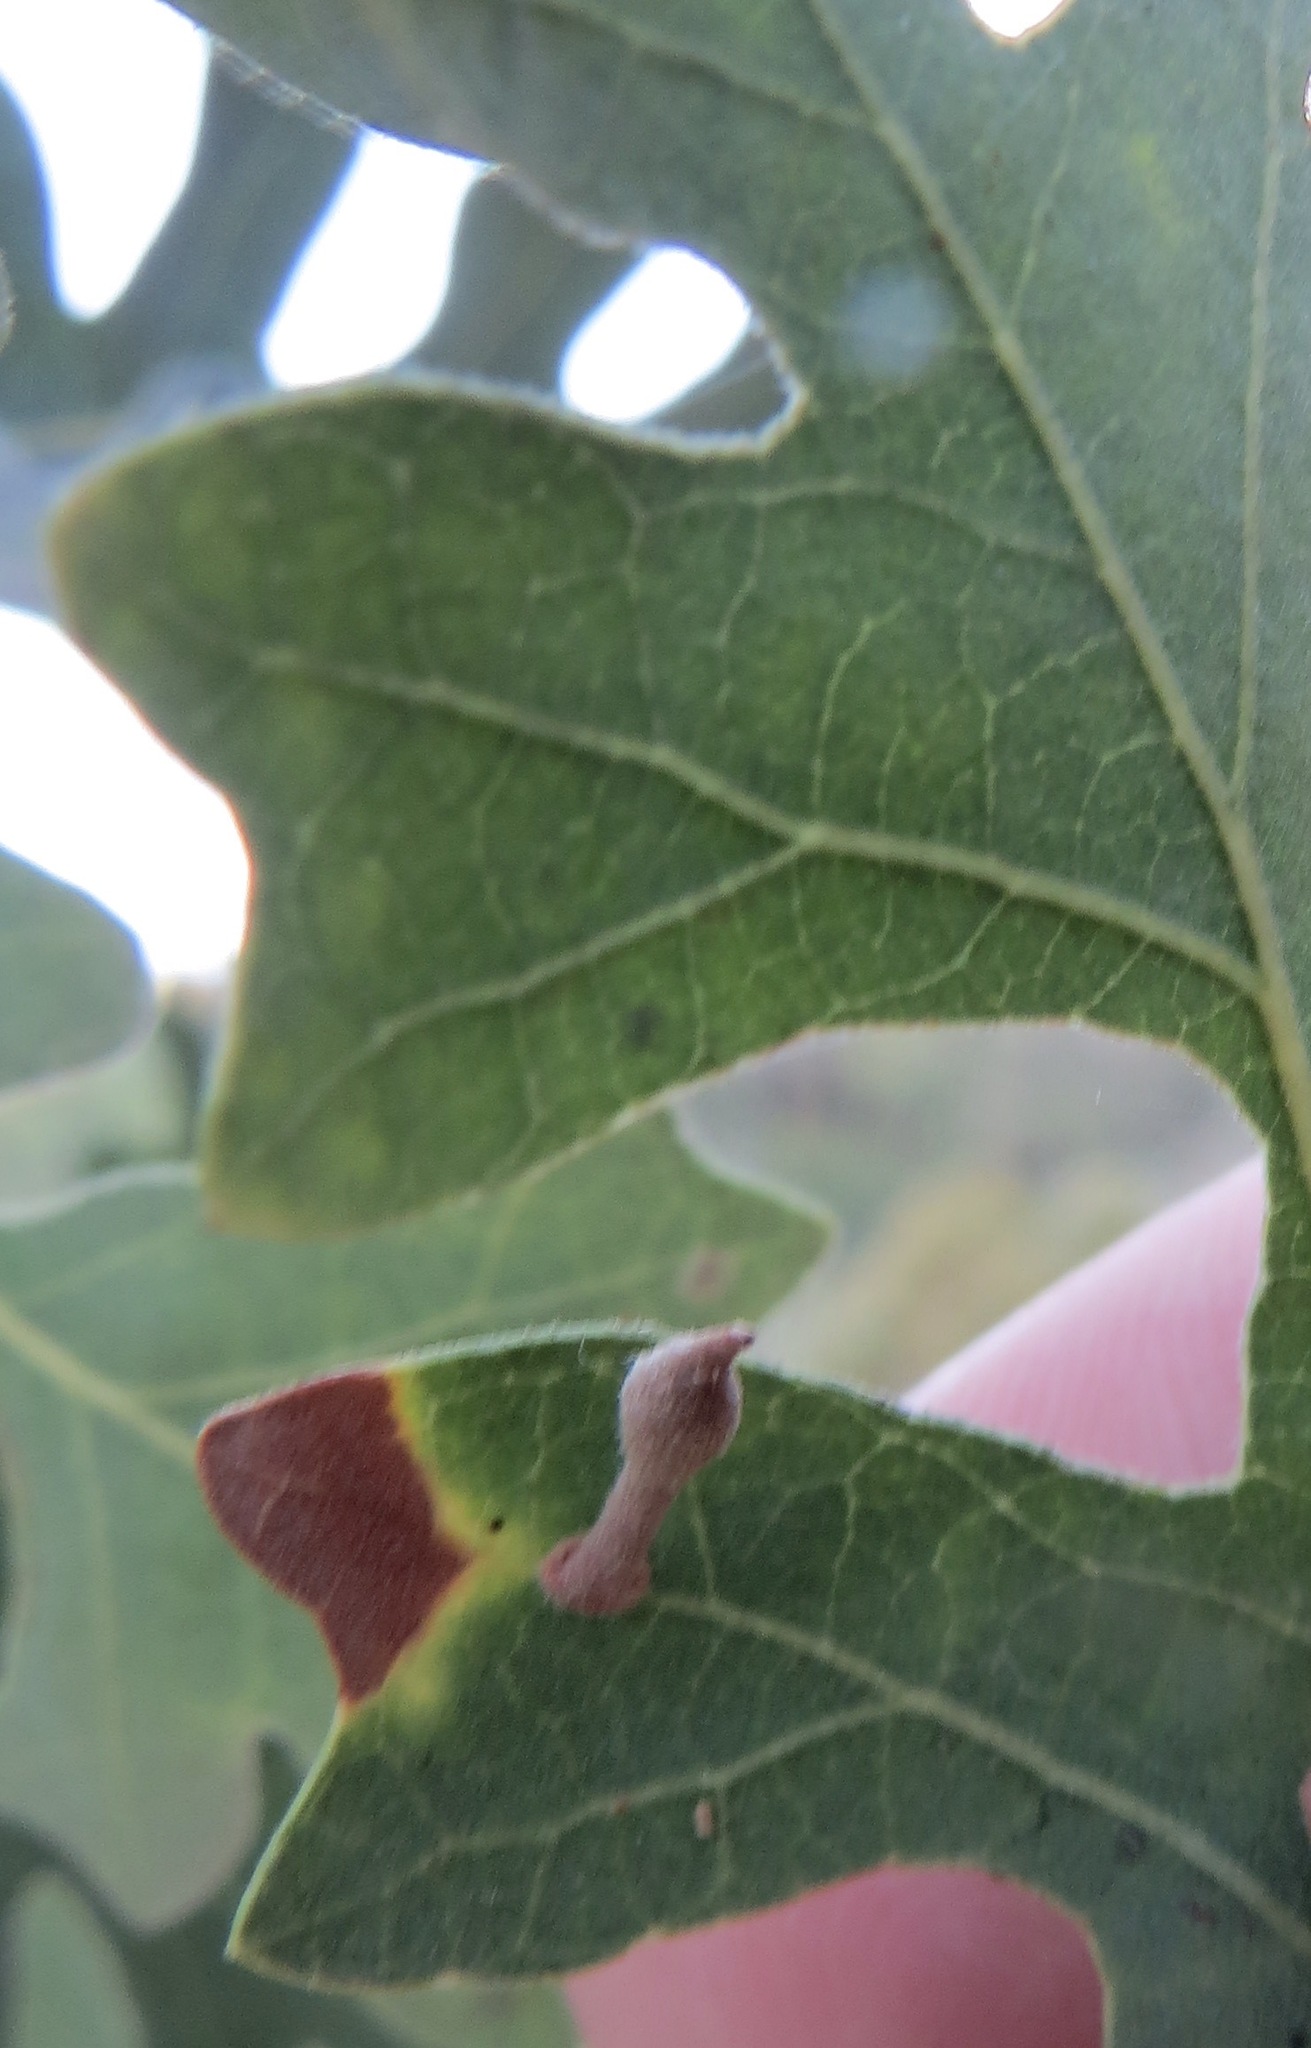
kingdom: Animalia
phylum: Arthropoda
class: Insecta
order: Hymenoptera
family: Cynipidae
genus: Atrusca
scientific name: Atrusca
